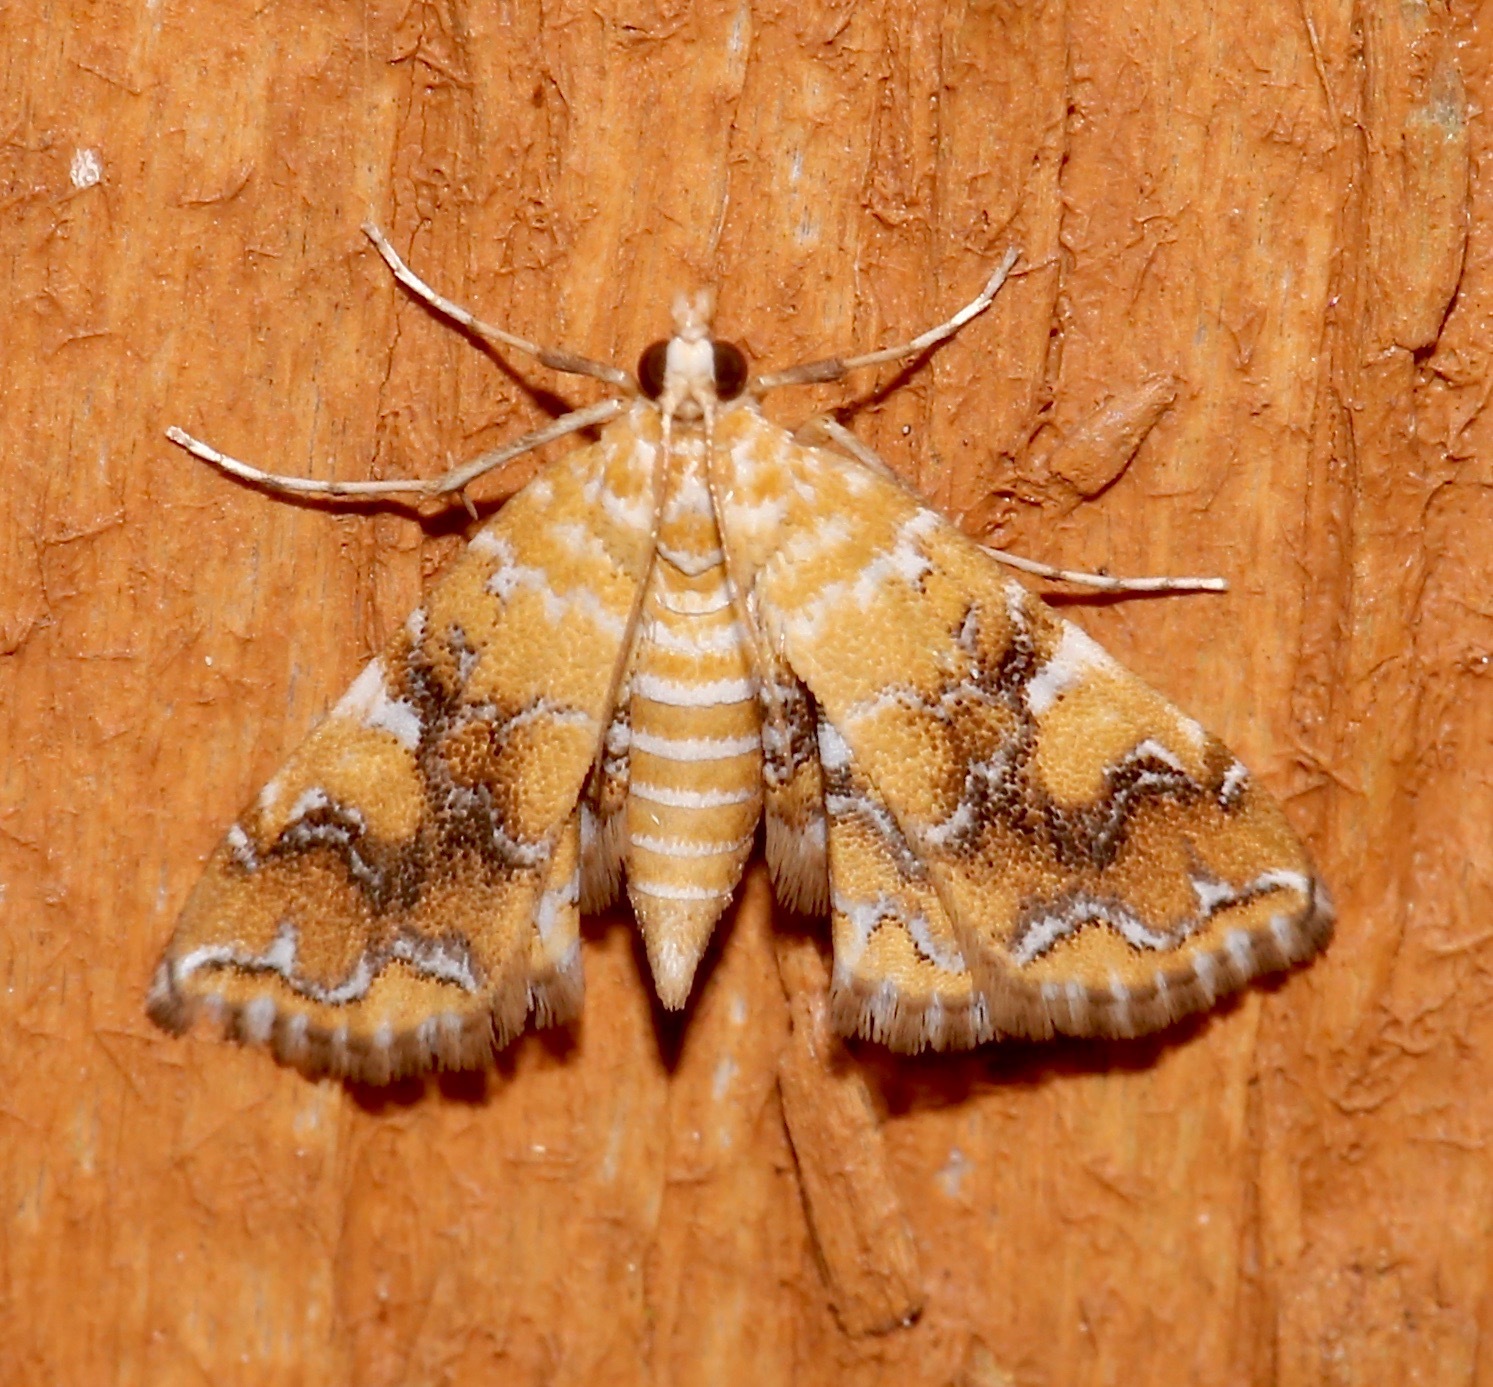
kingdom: Animalia
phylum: Arthropoda
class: Insecta
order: Lepidoptera
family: Crambidae
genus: Elophila
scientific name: Elophila nebulosalis
